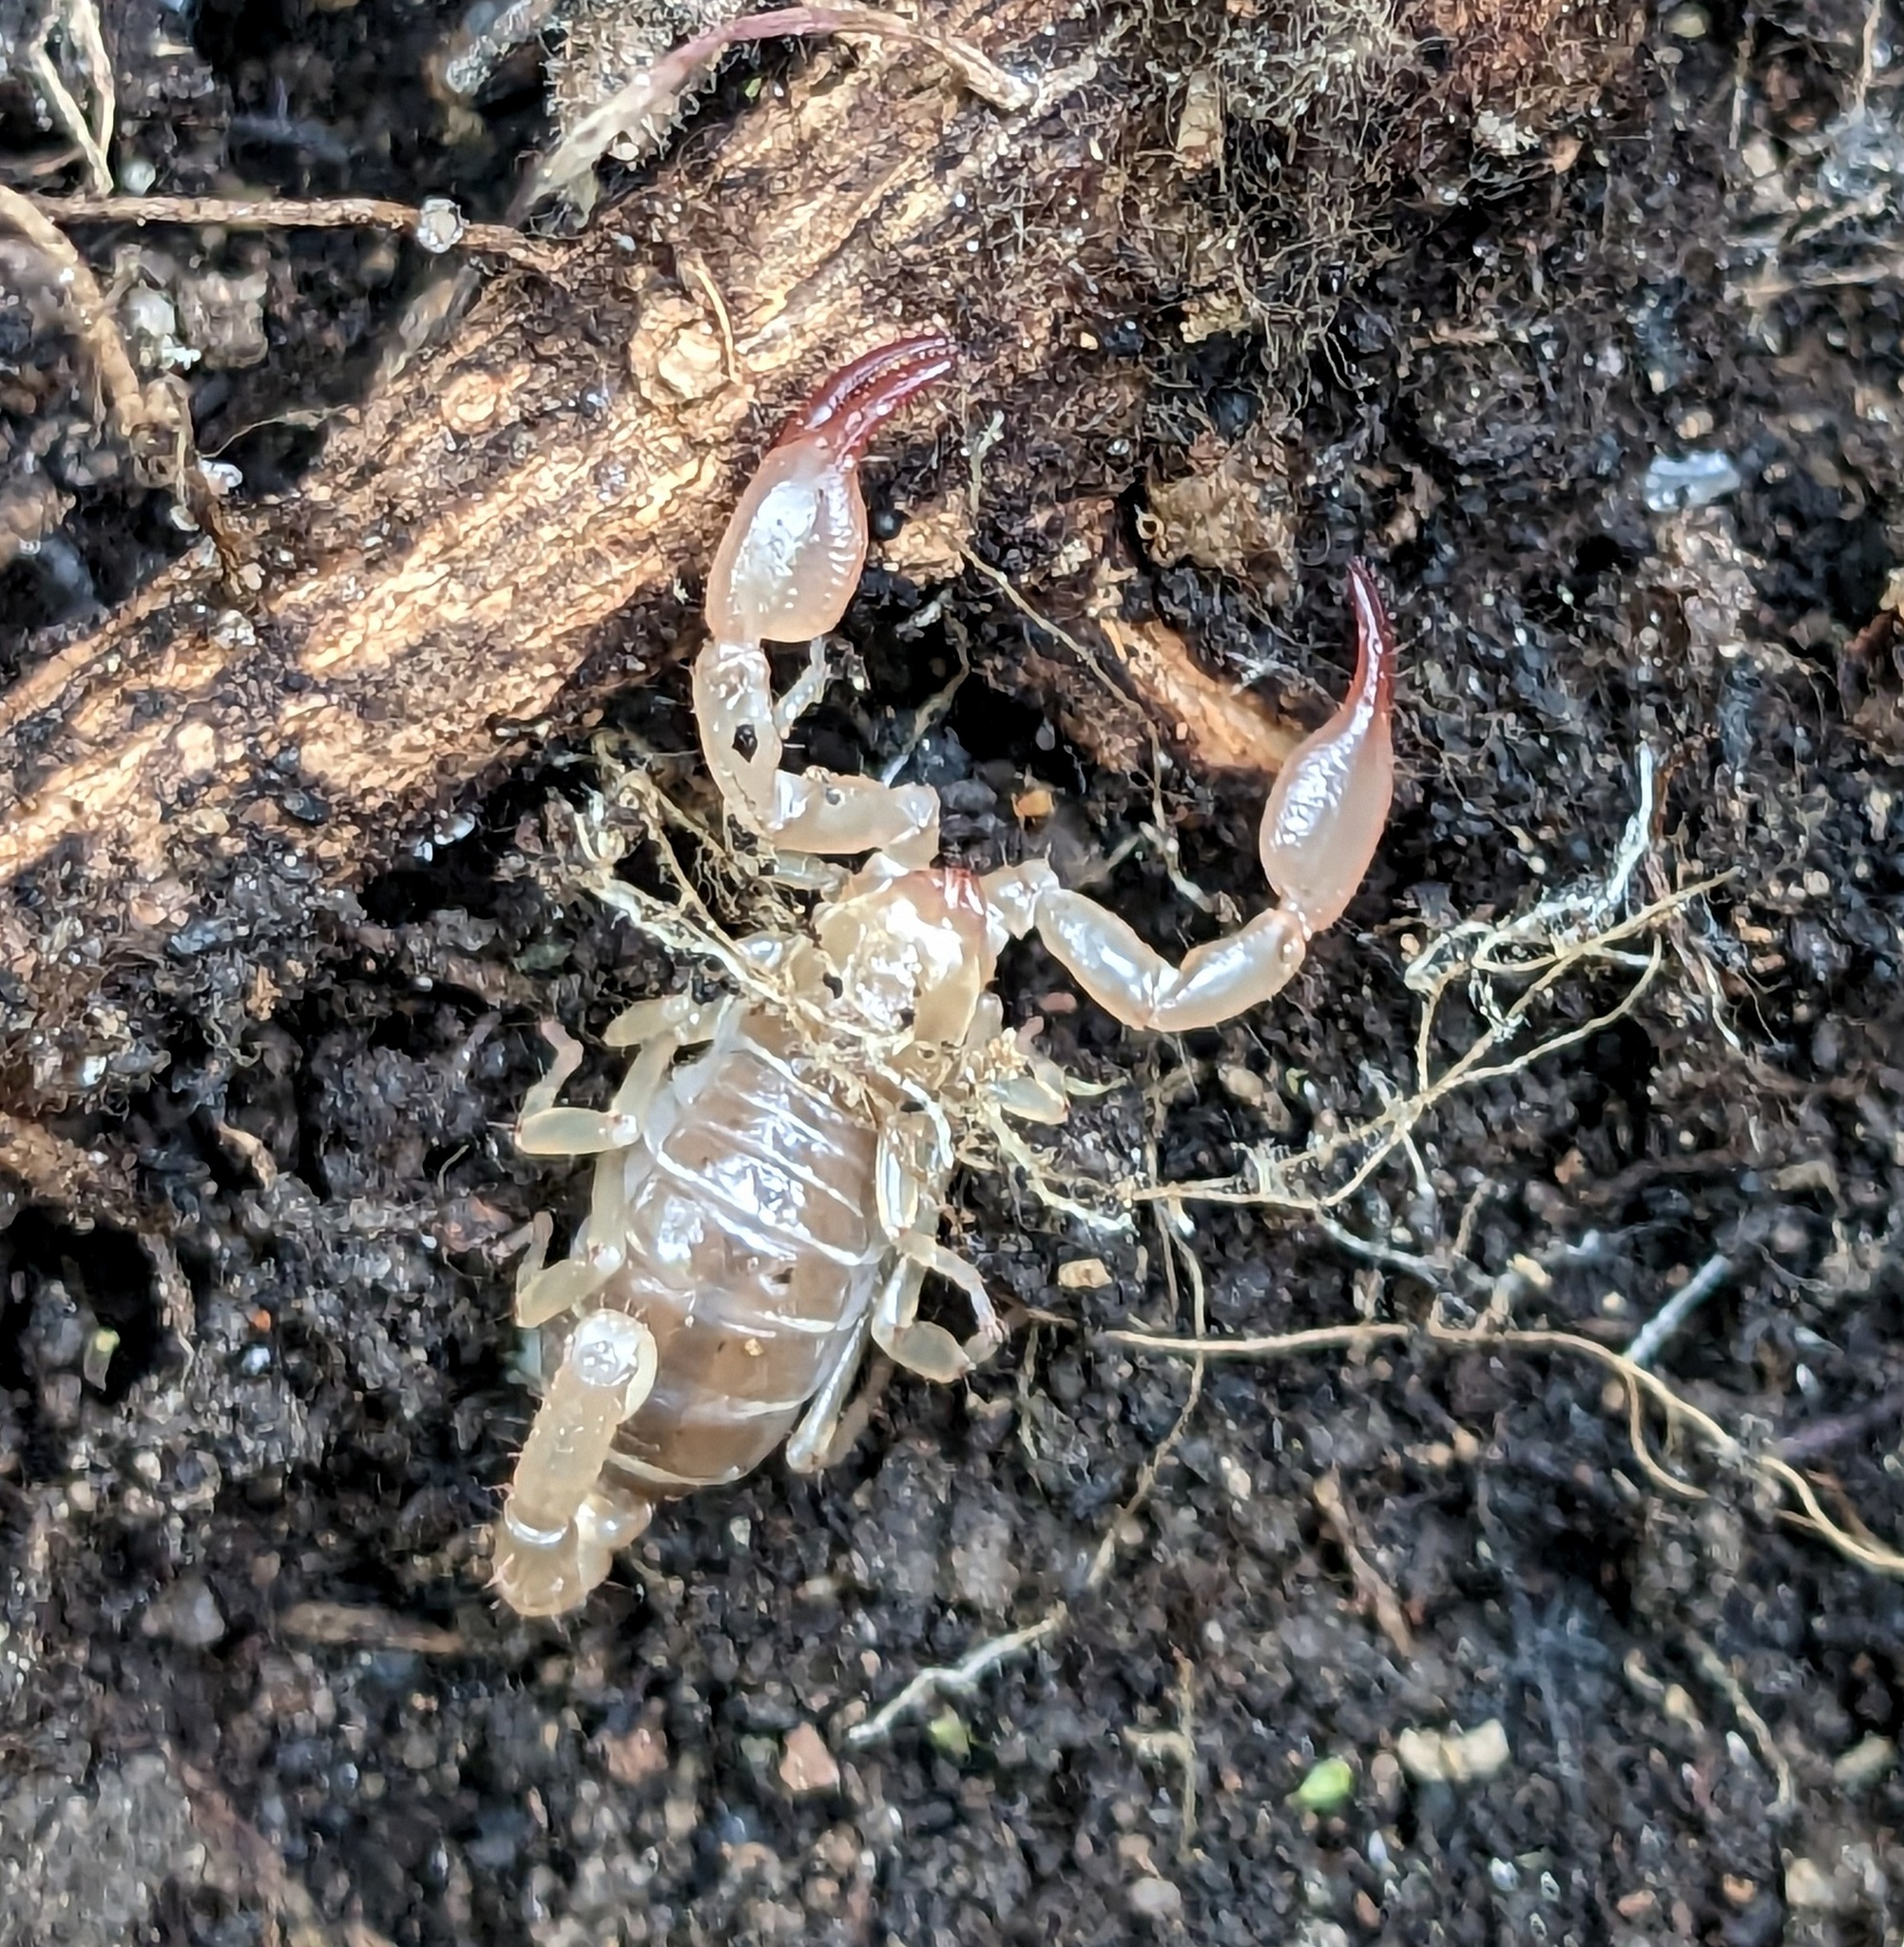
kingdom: Animalia
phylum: Arthropoda
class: Arachnida
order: Scorpiones
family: Belisariidae
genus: Belisarius
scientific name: Belisarius xambeui
